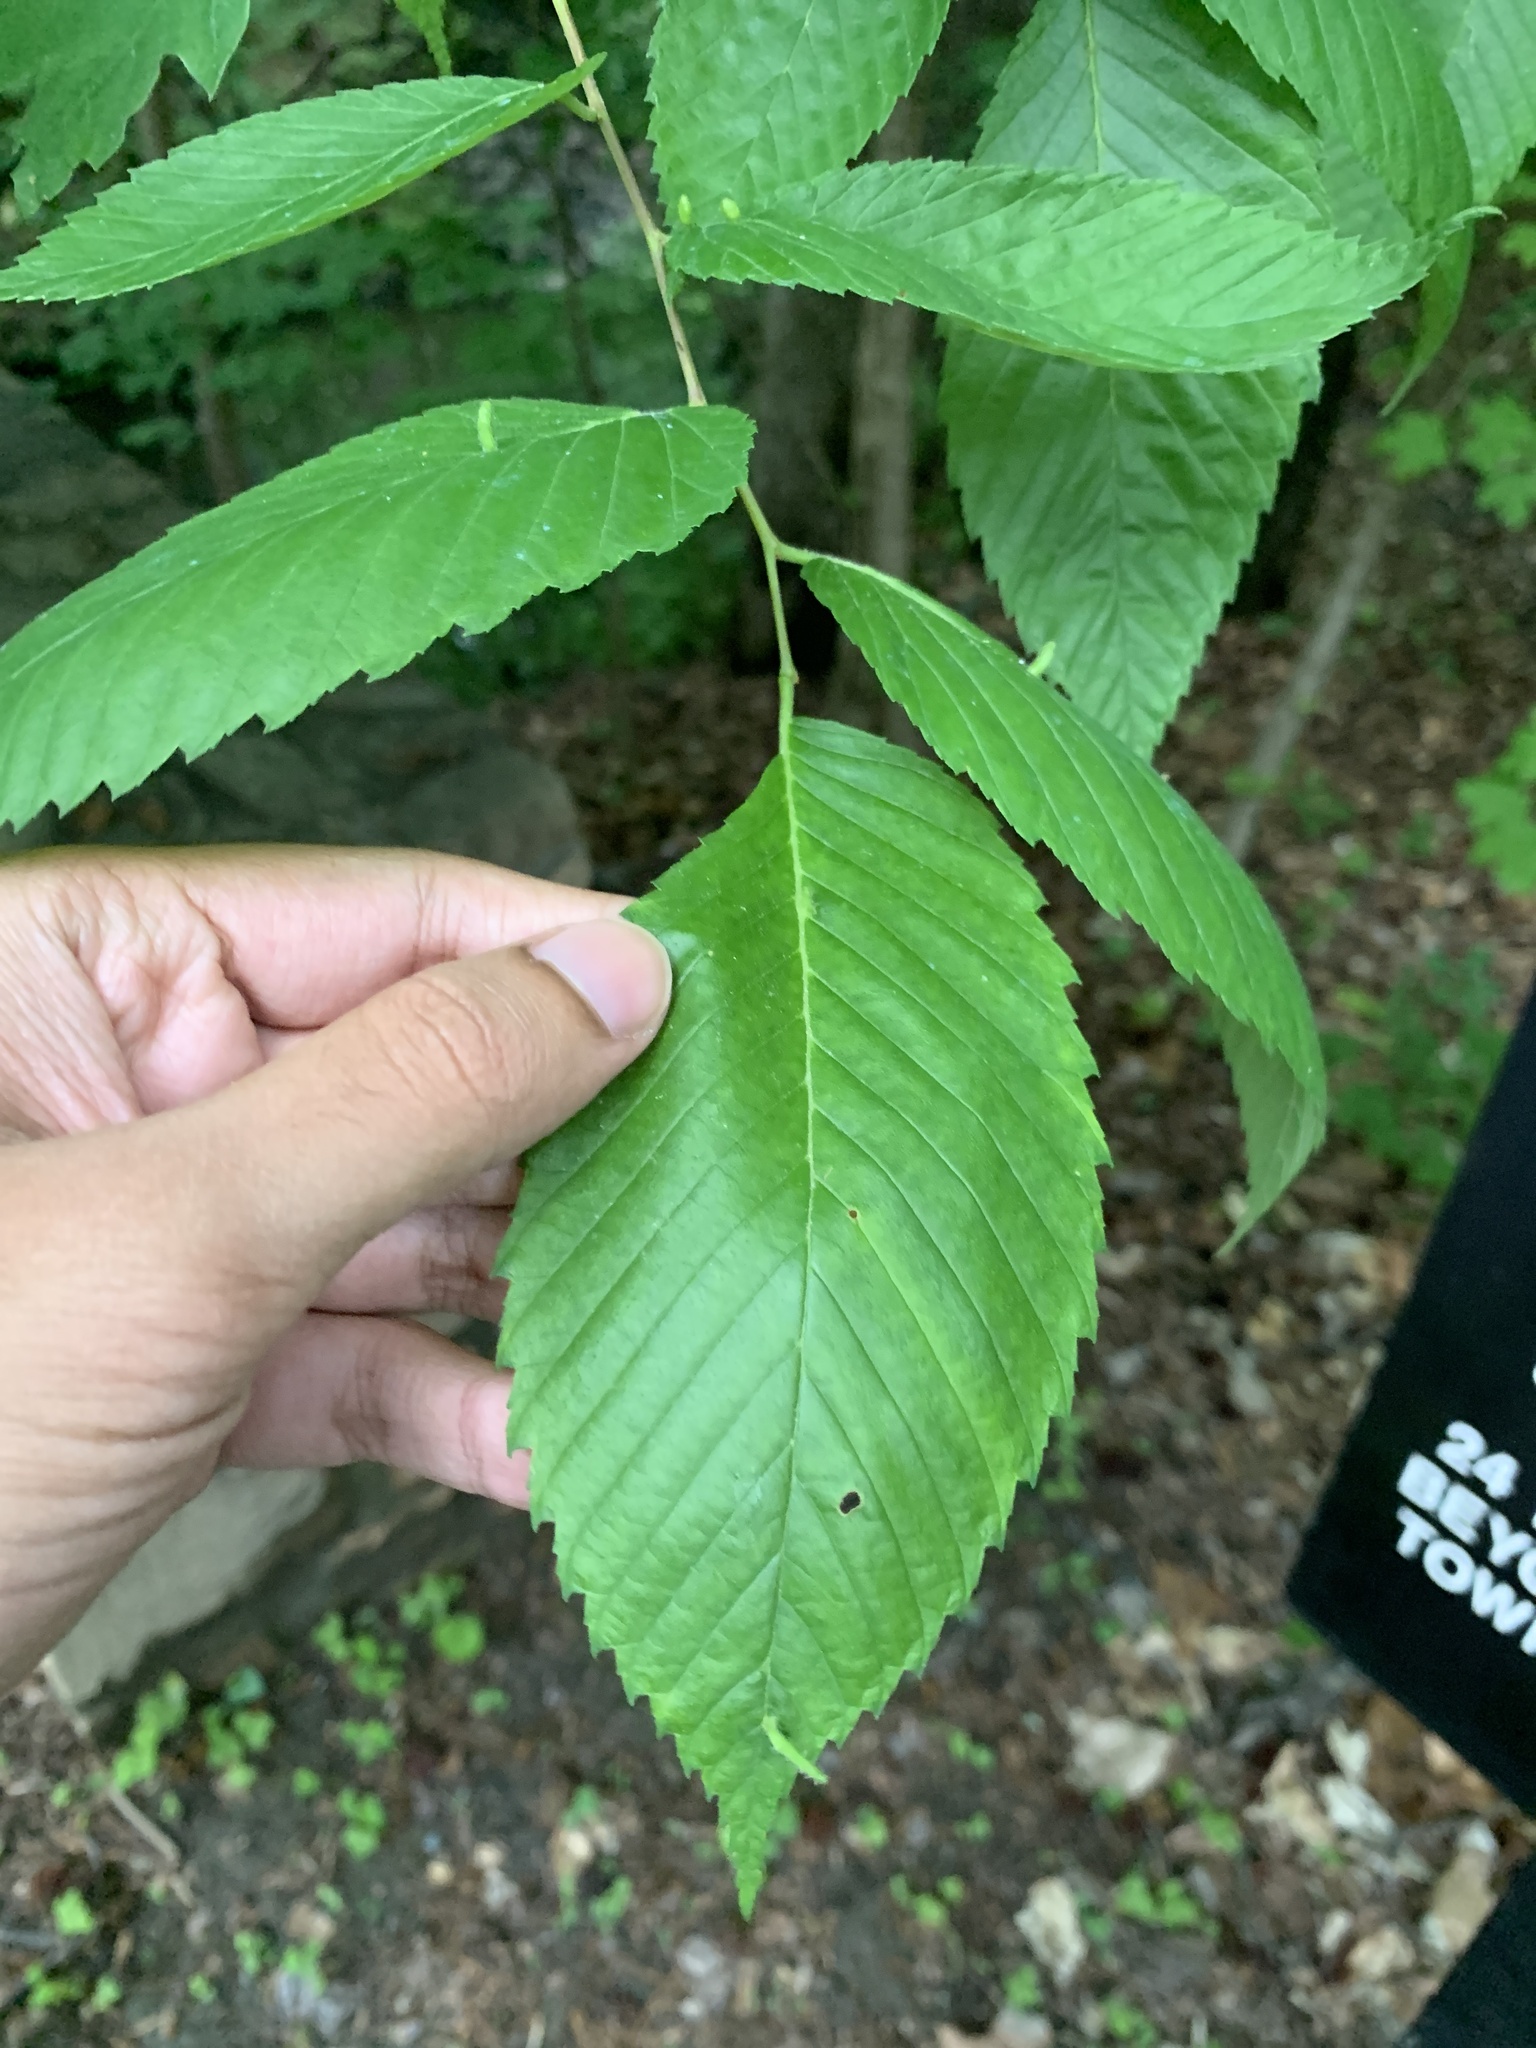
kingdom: Plantae
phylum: Tracheophyta
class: Magnoliopsida
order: Rosales
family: Ulmaceae
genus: Ulmus
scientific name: Ulmus rubra
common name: Slippery elm
